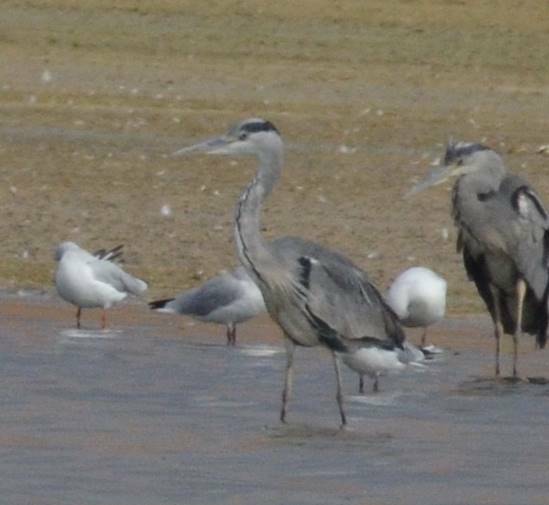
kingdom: Animalia
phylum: Chordata
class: Aves
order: Pelecaniformes
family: Ardeidae
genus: Ardea
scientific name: Ardea cinerea
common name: Grey heron
